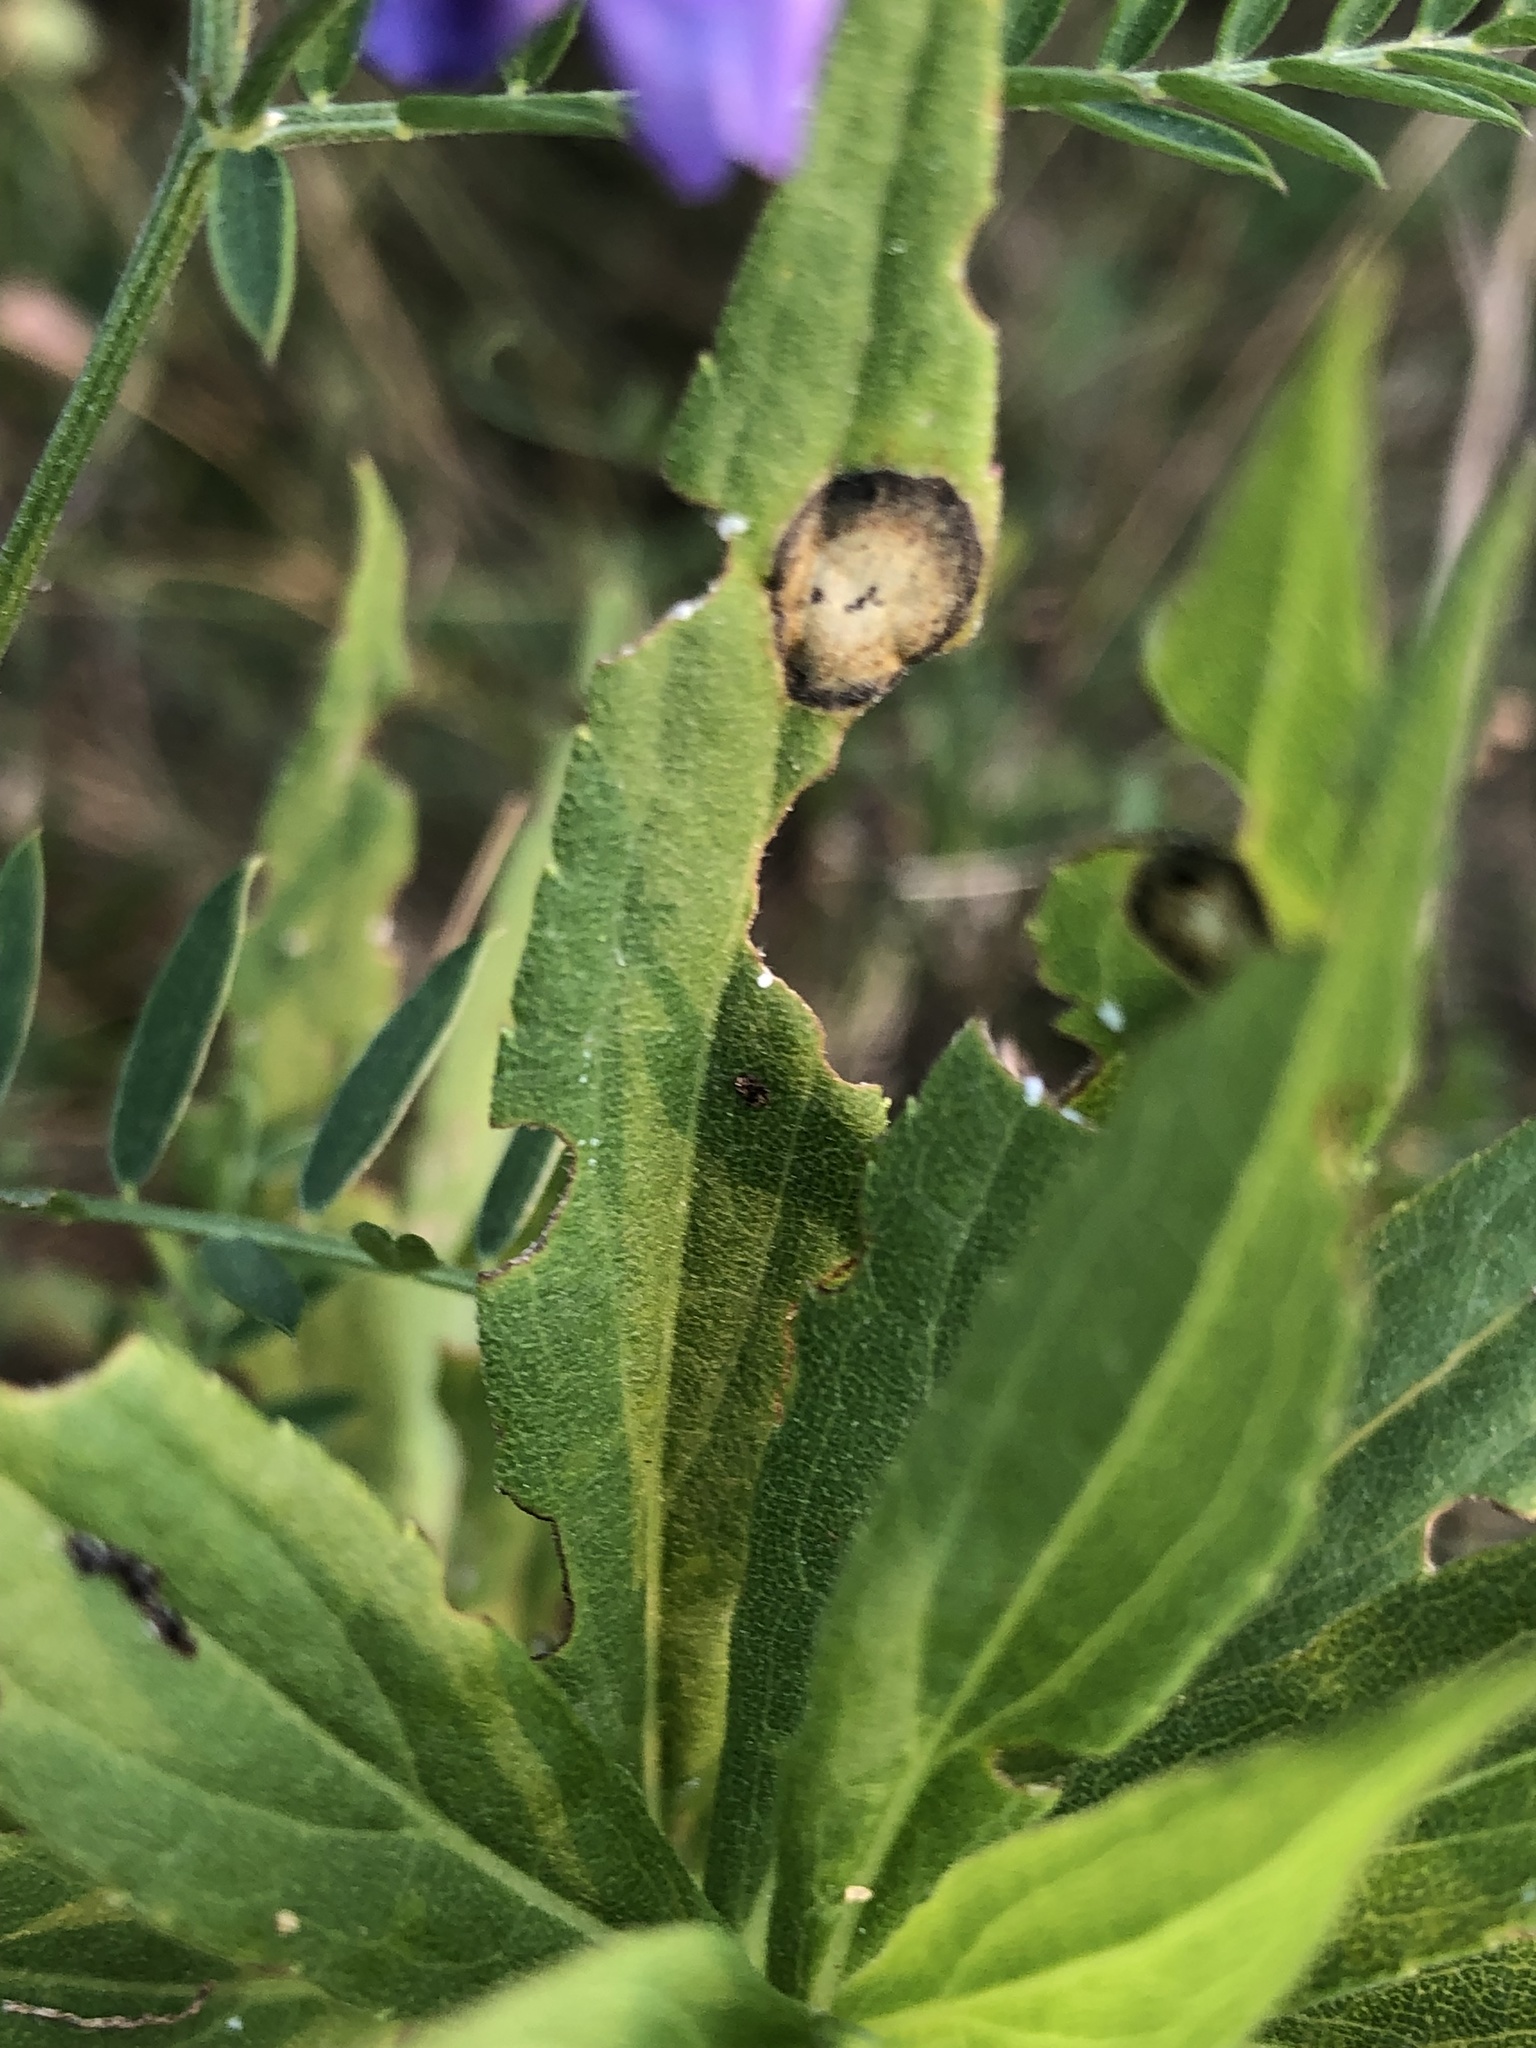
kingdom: Animalia
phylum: Arthropoda
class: Insecta
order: Diptera
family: Cecidomyiidae
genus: Asteromyia
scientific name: Asteromyia carbonifera
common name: Carbonifera goldenrod gall midge
